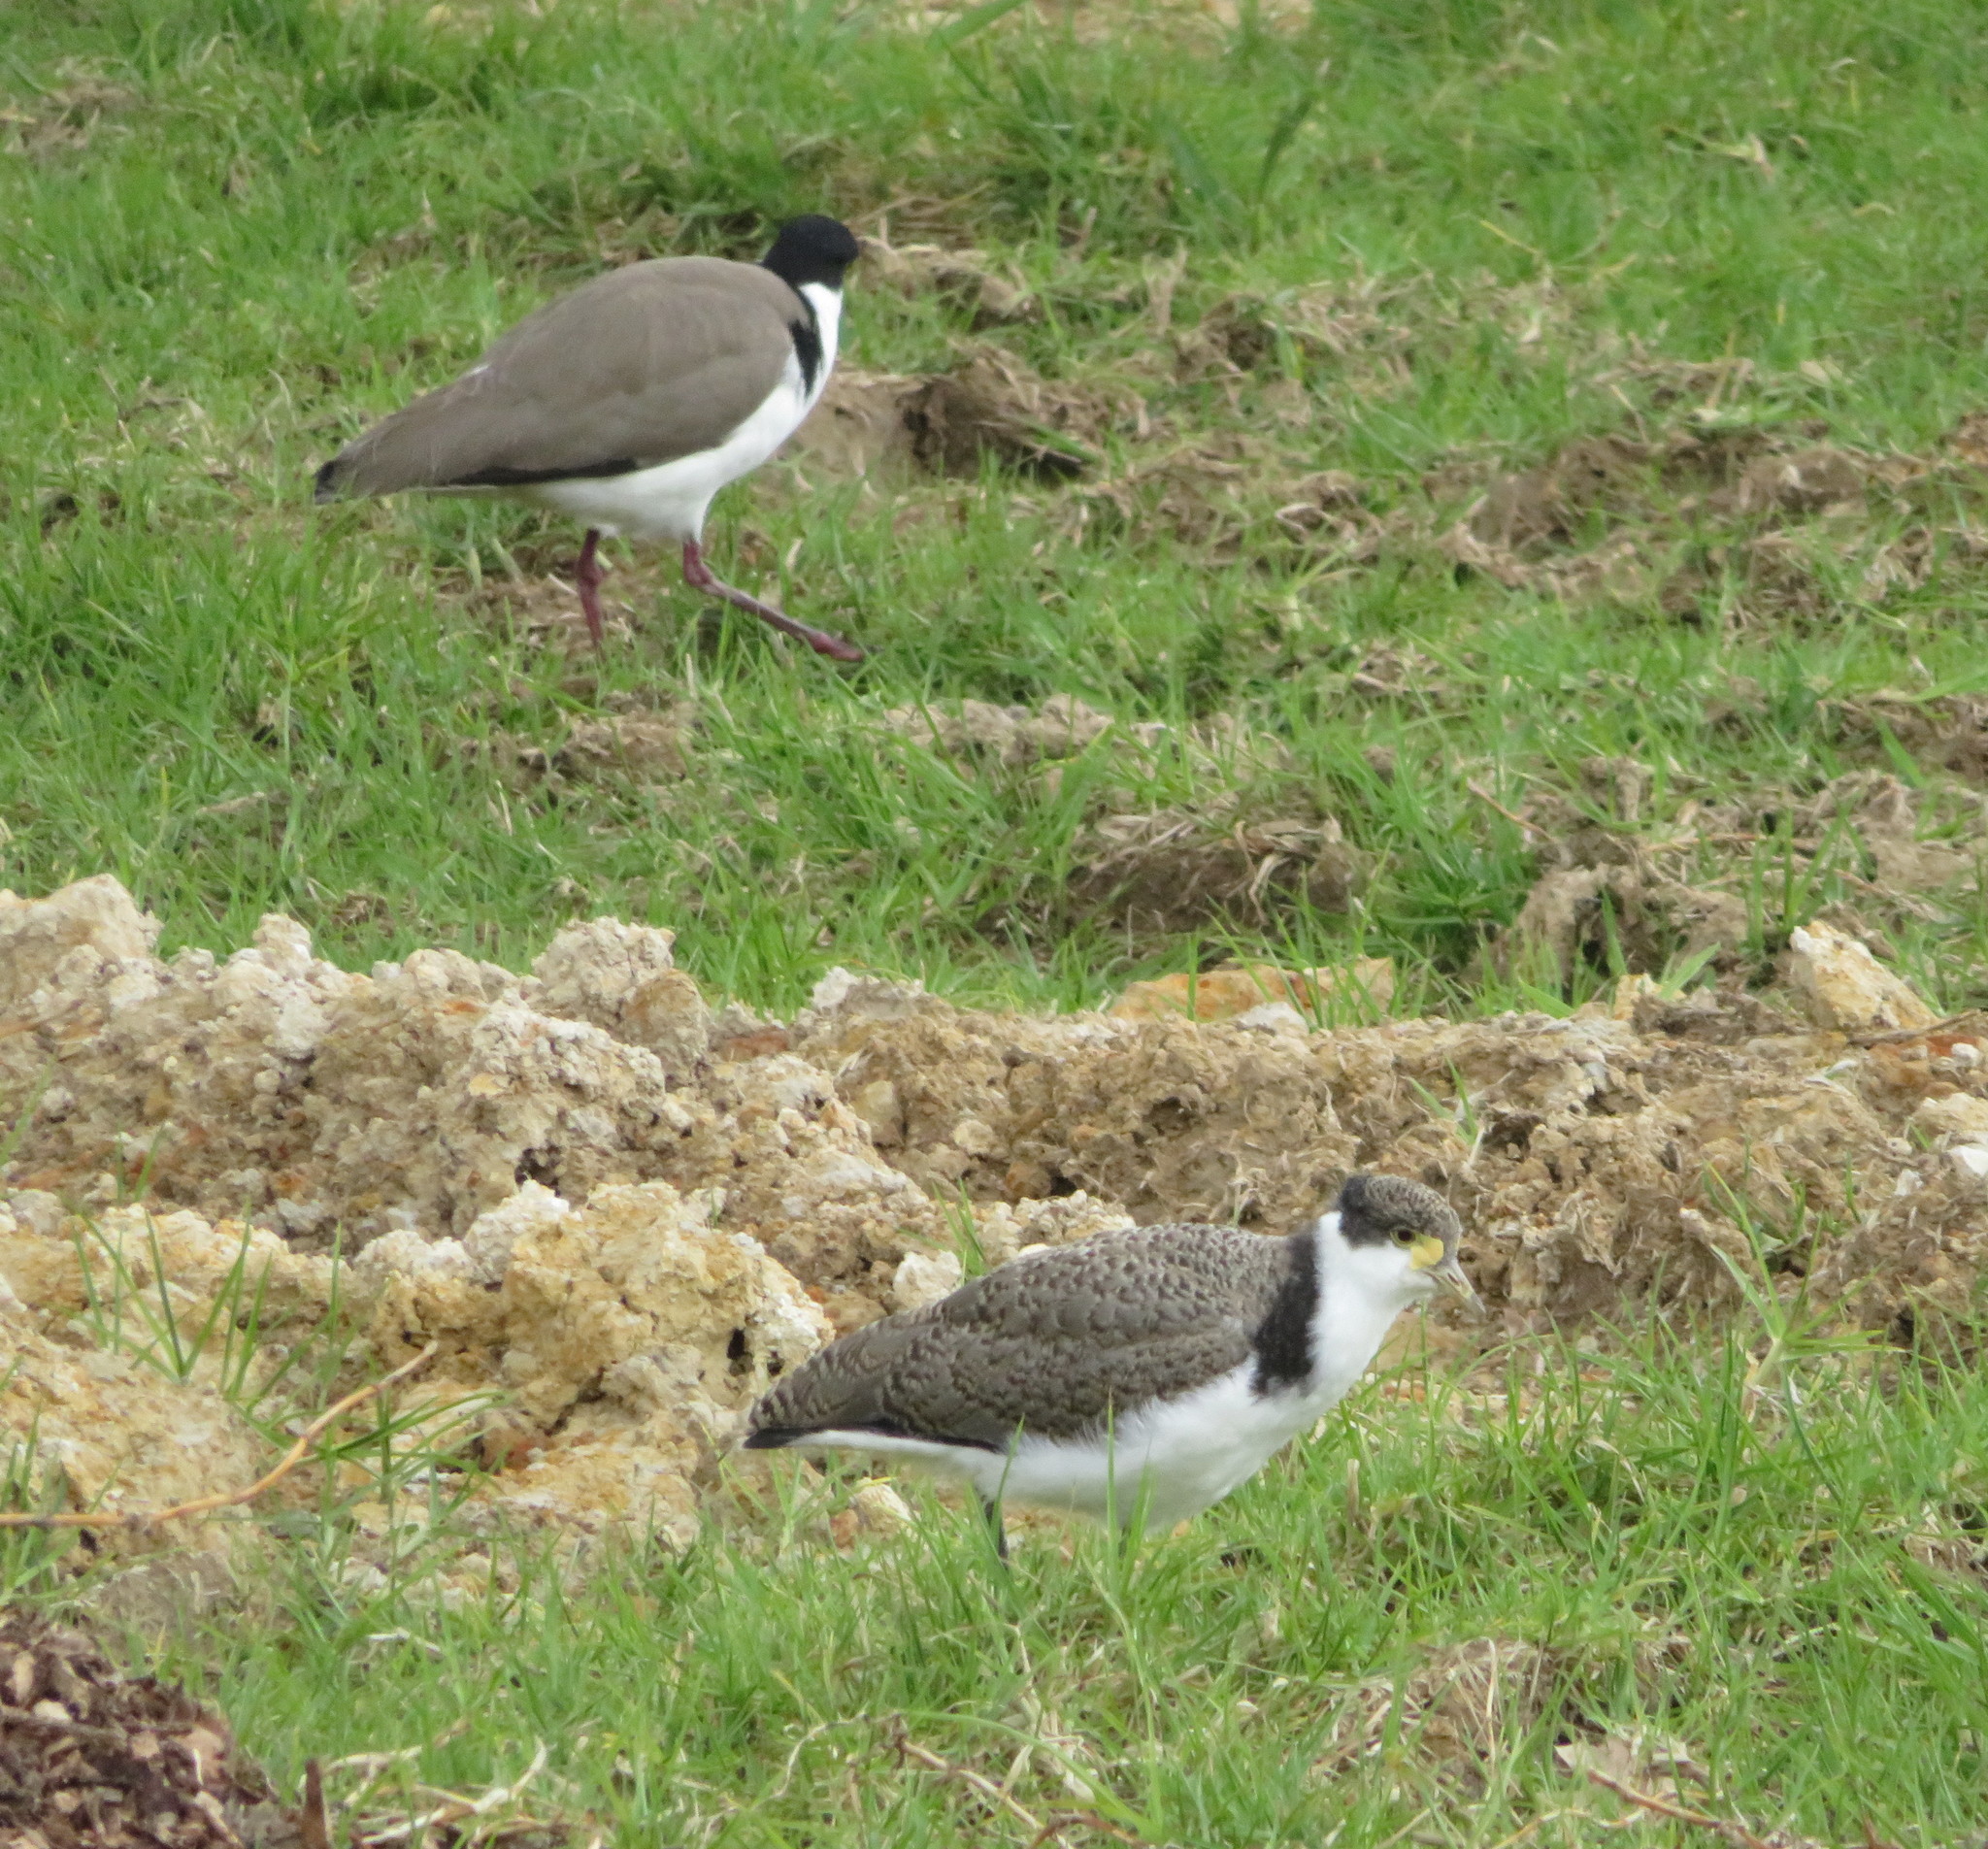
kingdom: Animalia
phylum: Chordata
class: Aves
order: Charadriiformes
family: Charadriidae
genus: Vanellus
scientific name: Vanellus miles
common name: Masked lapwing
